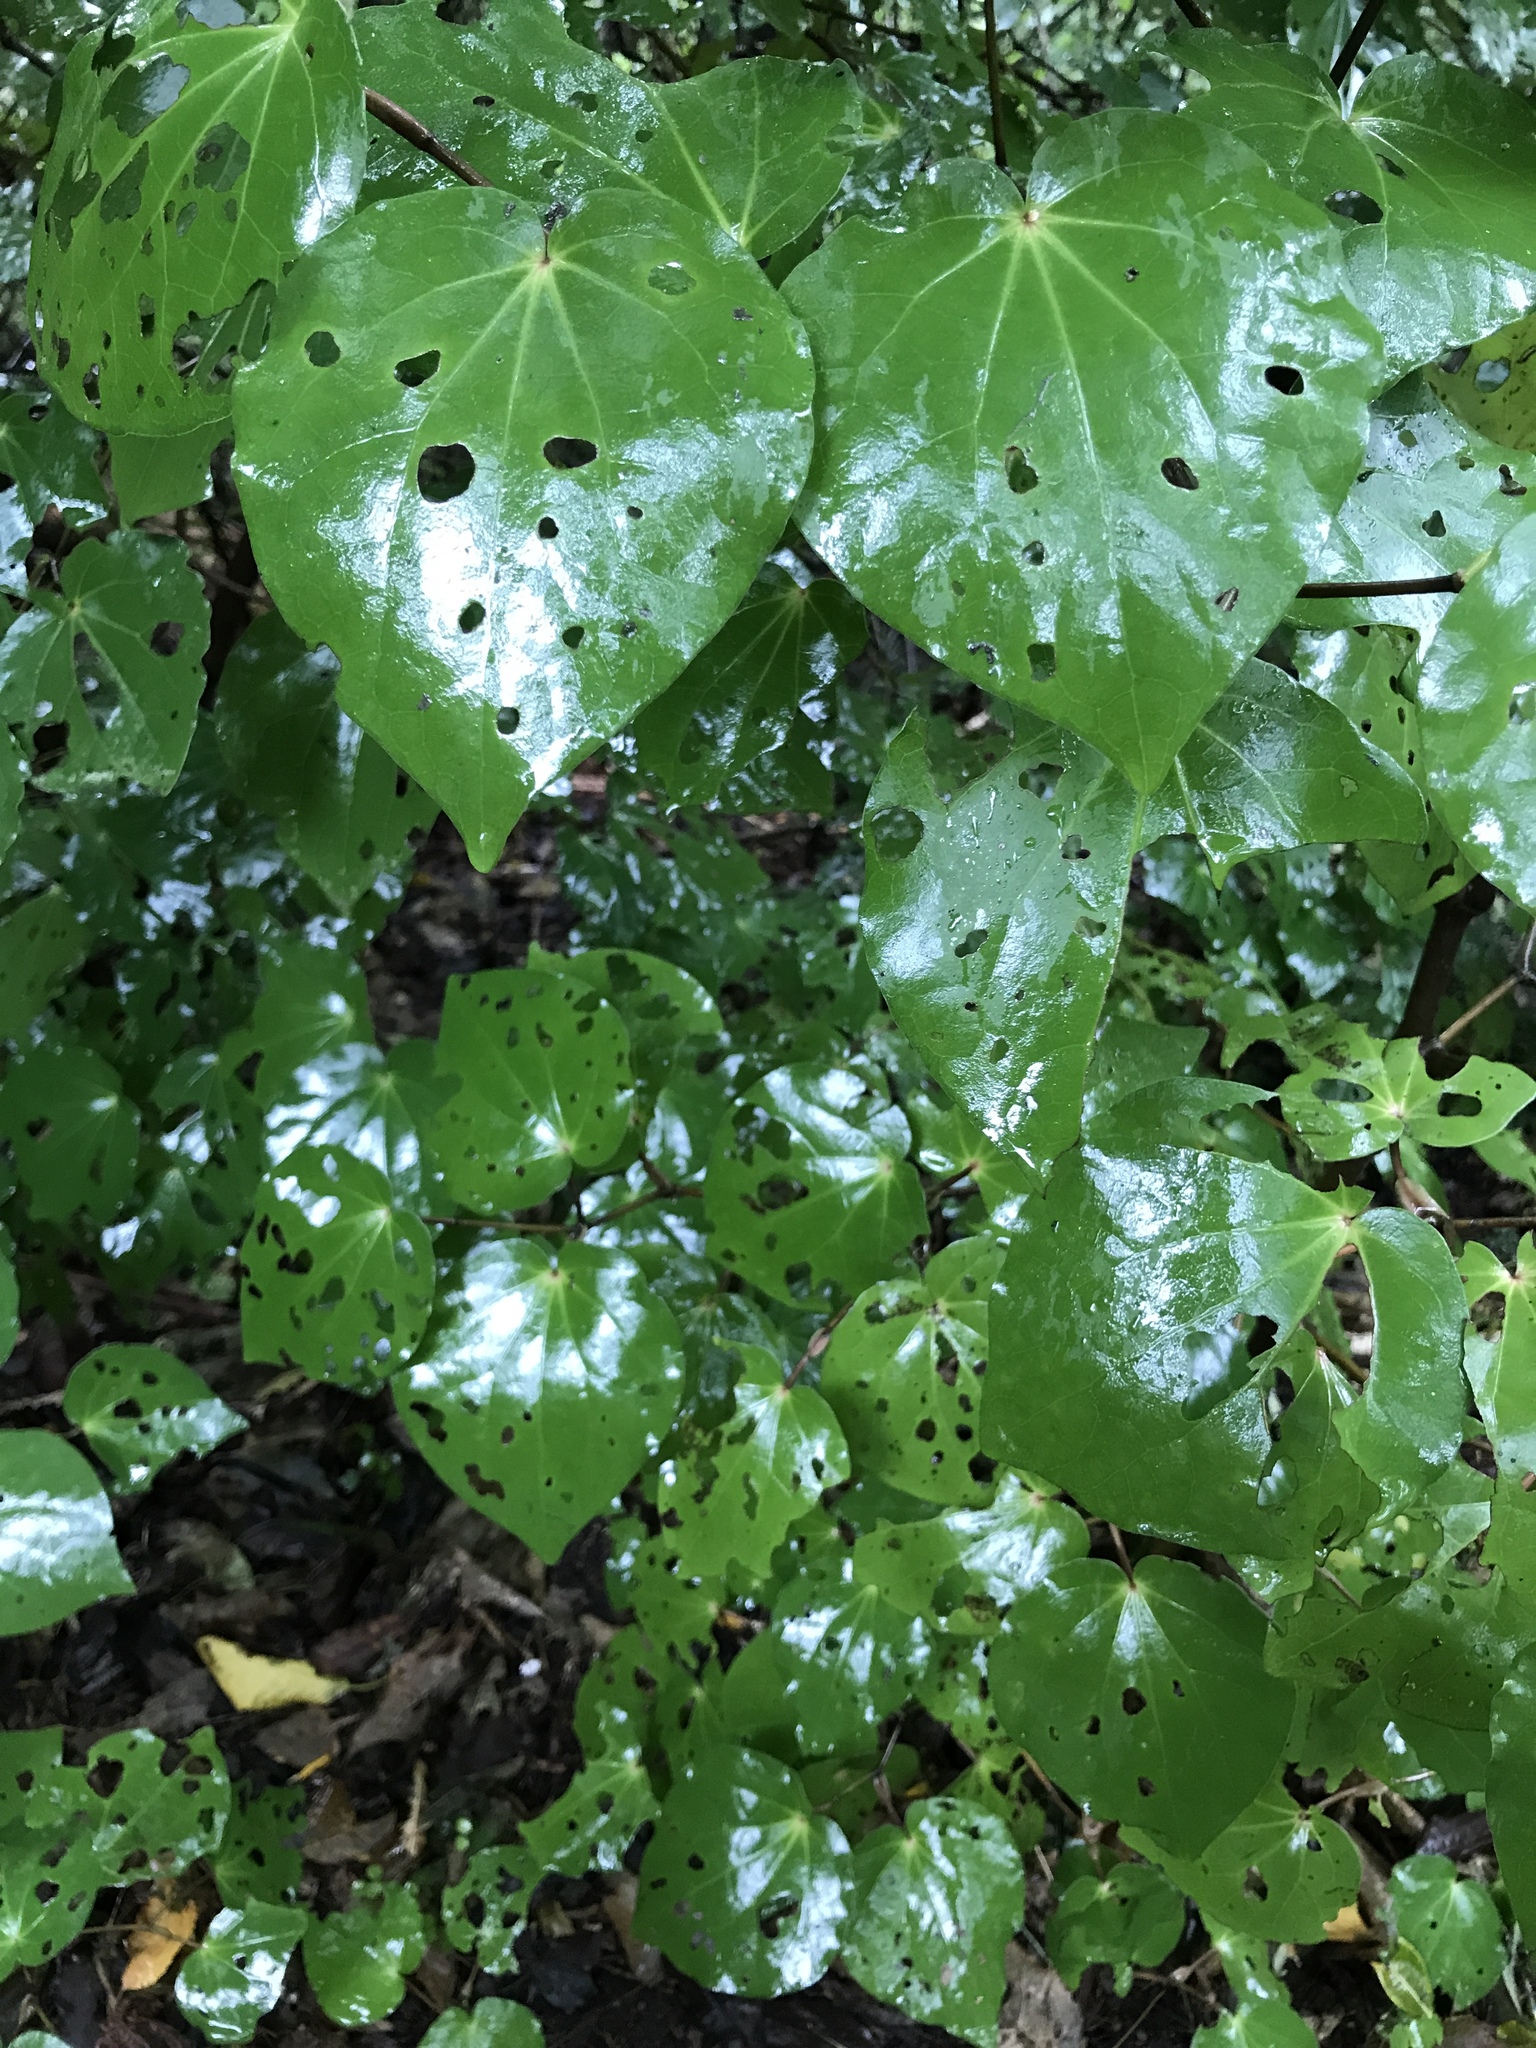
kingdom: Plantae
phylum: Tracheophyta
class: Magnoliopsida
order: Piperales
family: Piperaceae
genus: Macropiper
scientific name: Macropiper excelsum
